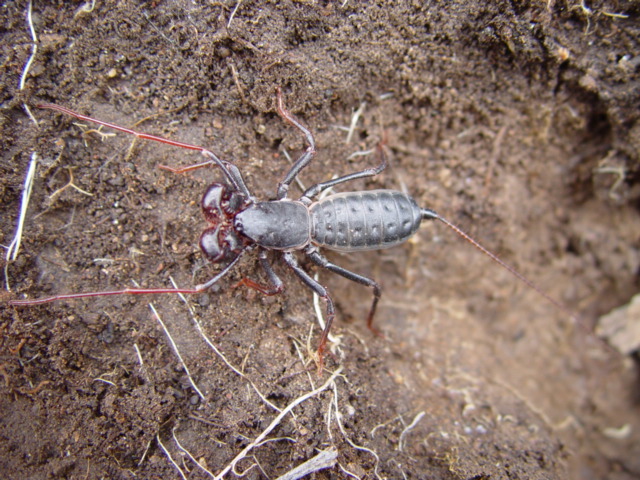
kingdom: Animalia
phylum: Arthropoda
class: Arachnida
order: Uropygi
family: Thelyphonidae
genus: Mastigoproctus
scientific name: Mastigoproctus tohono
